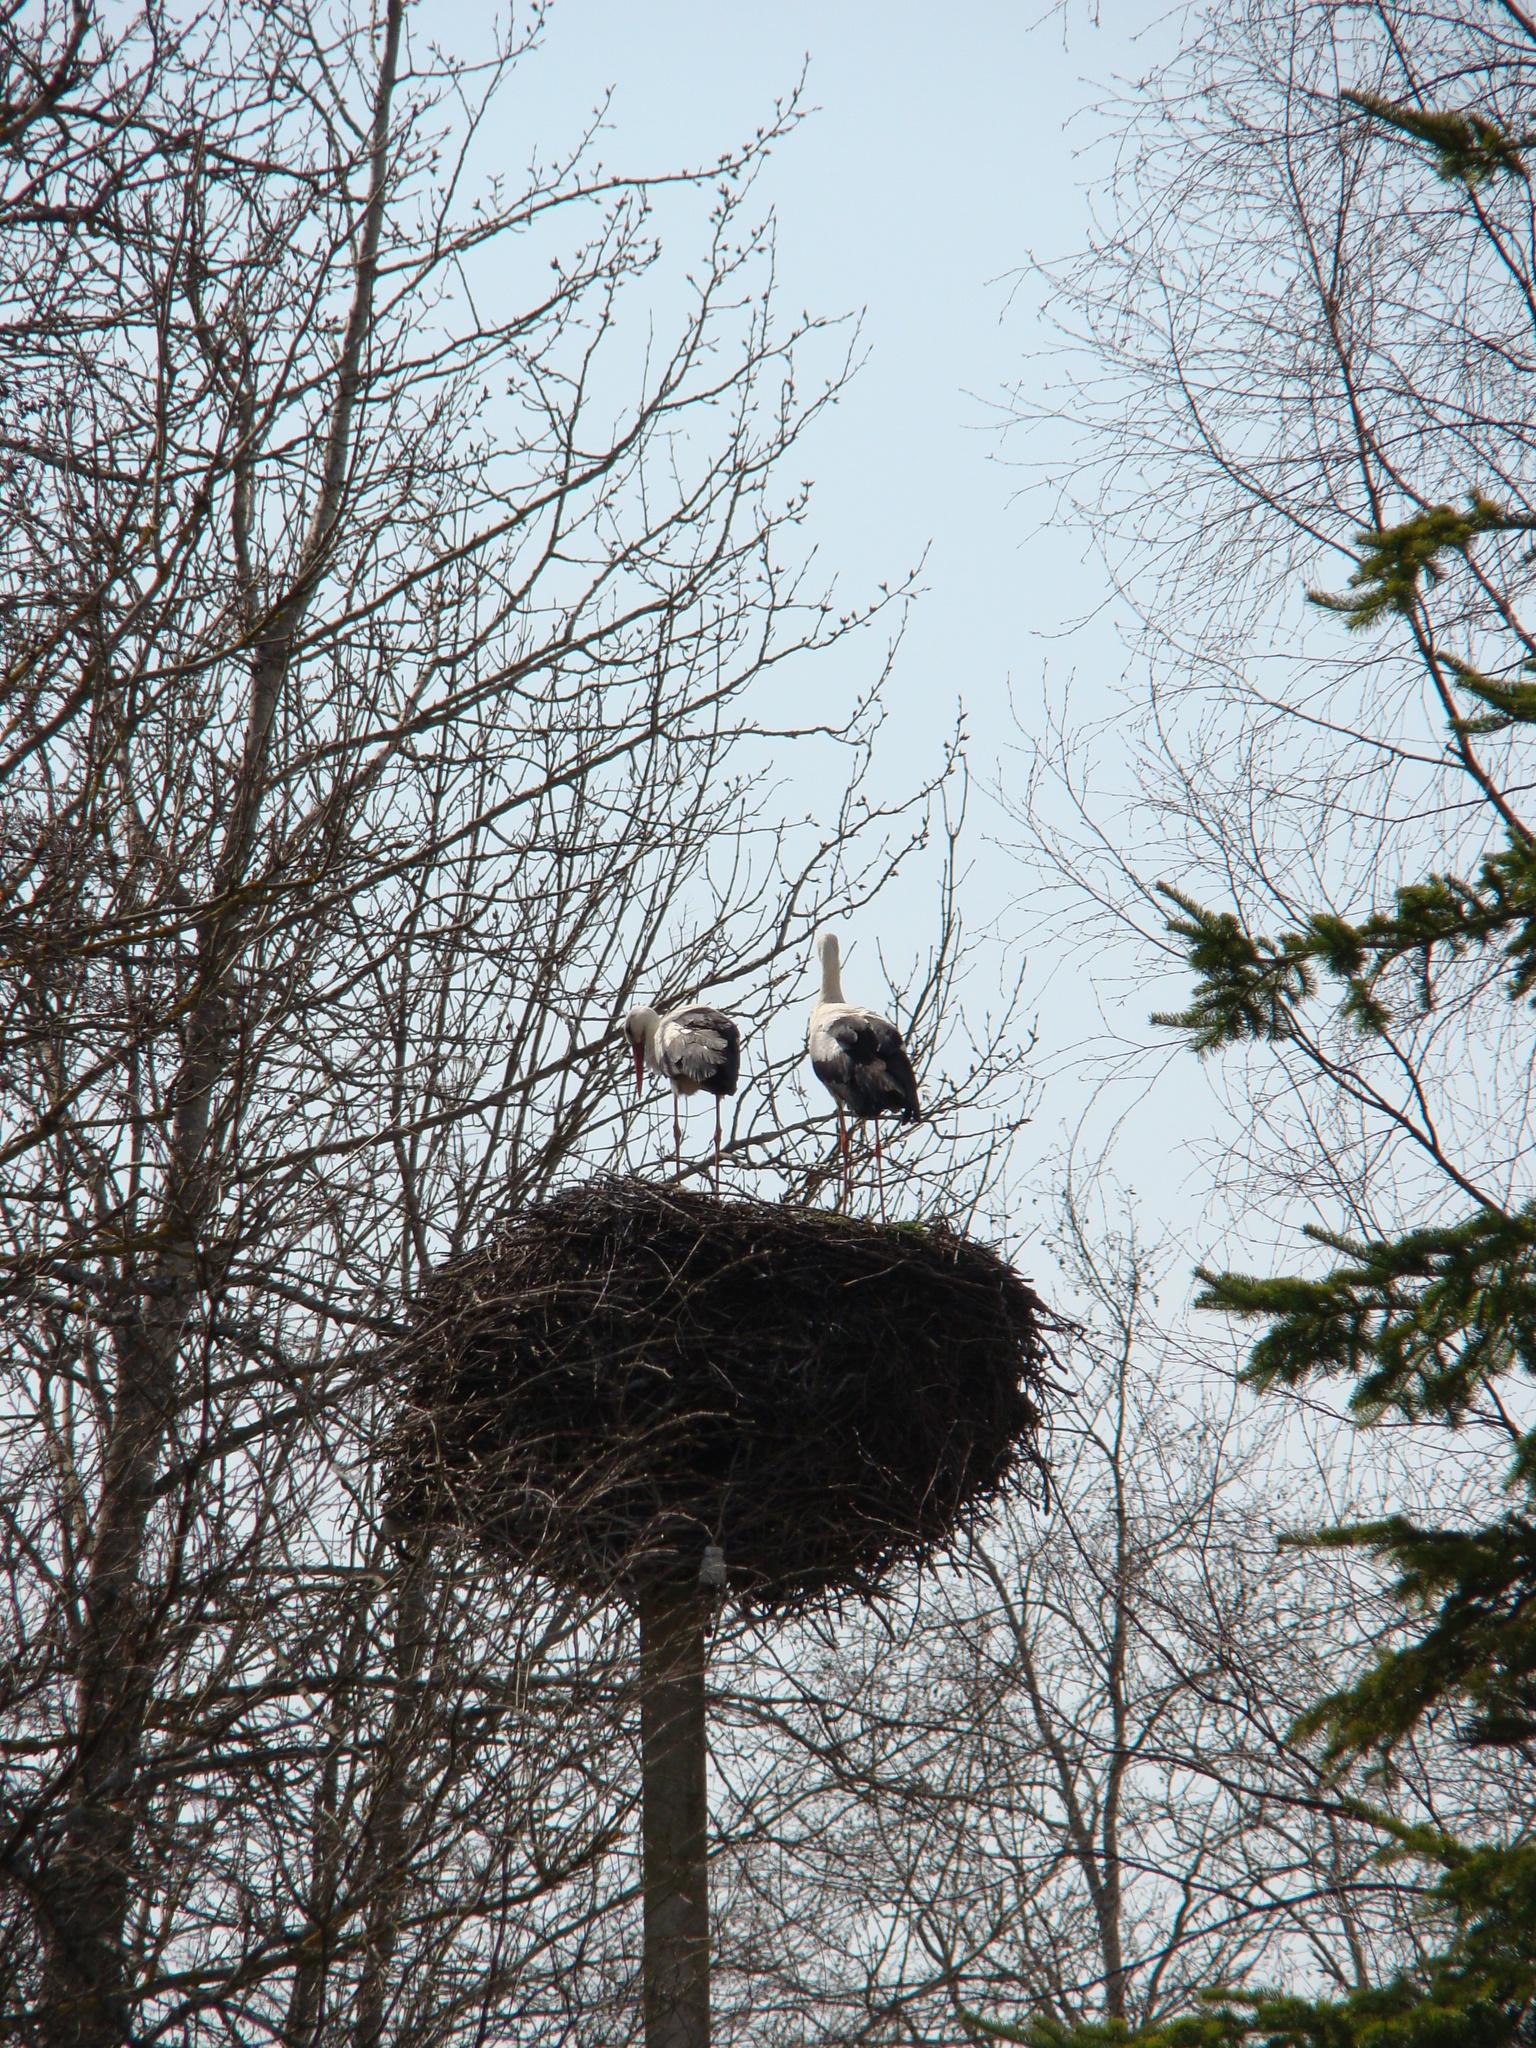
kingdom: Animalia
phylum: Chordata
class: Aves
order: Ciconiiformes
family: Ciconiidae
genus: Ciconia
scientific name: Ciconia ciconia
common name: White stork
